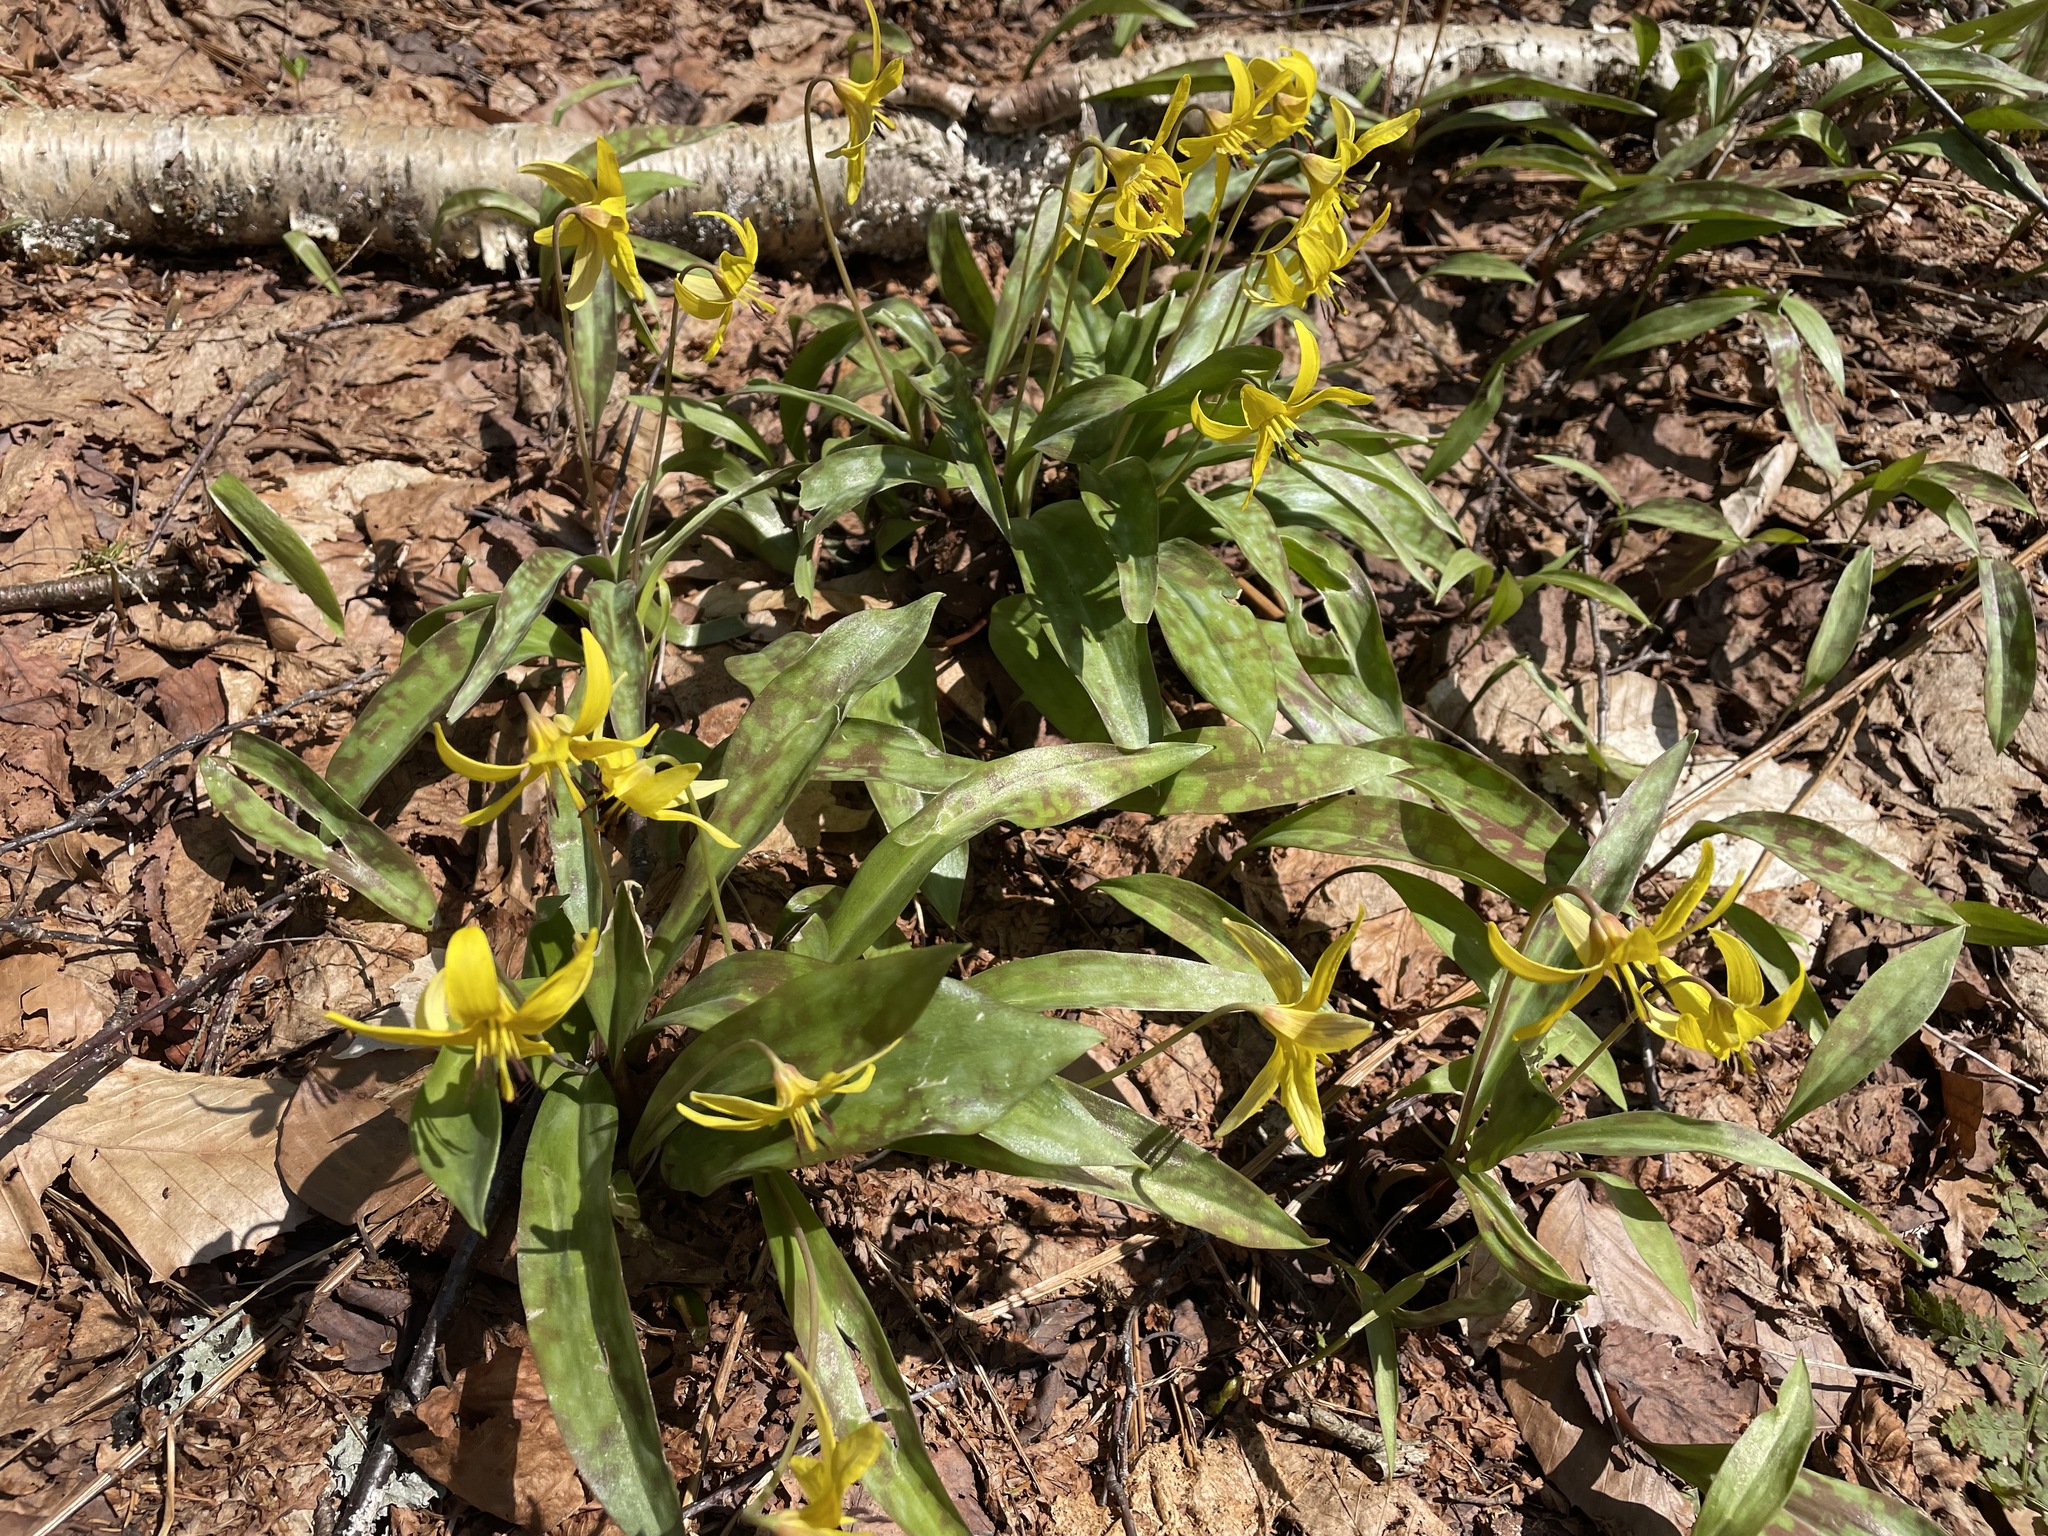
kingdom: Plantae
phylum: Tracheophyta
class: Liliopsida
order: Liliales
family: Liliaceae
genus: Erythronium
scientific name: Erythronium americanum
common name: Yellow adder's-tongue
